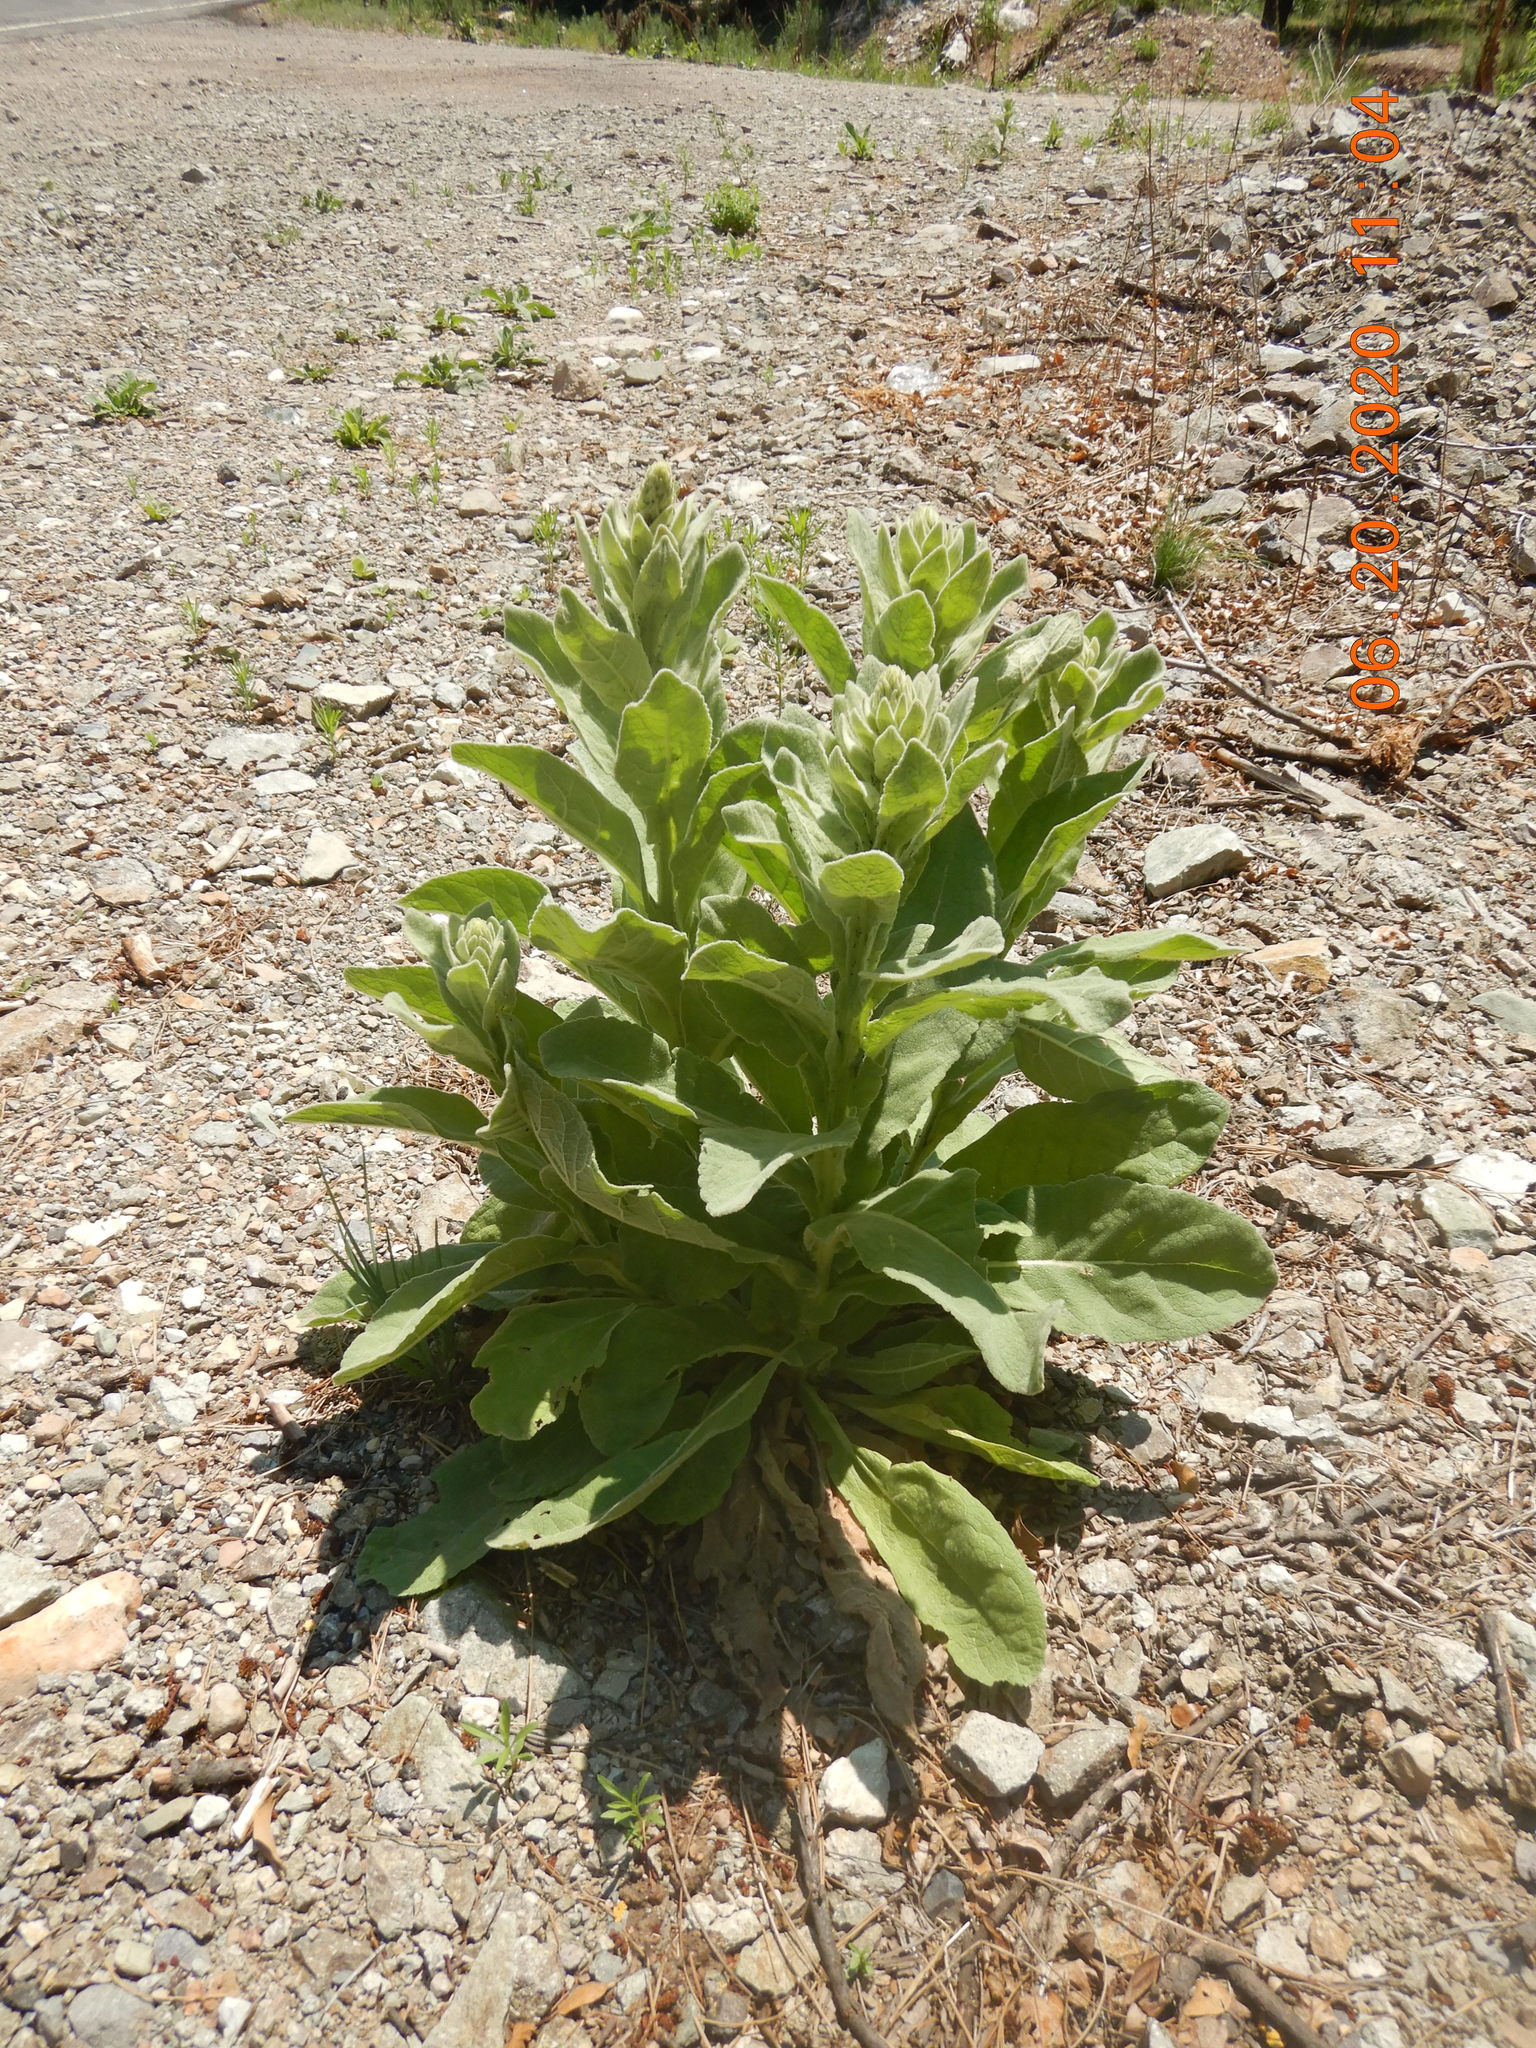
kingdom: Plantae
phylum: Tracheophyta
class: Magnoliopsida
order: Lamiales
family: Scrophulariaceae
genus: Verbascum
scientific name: Verbascum thapsus
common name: Common mullein
